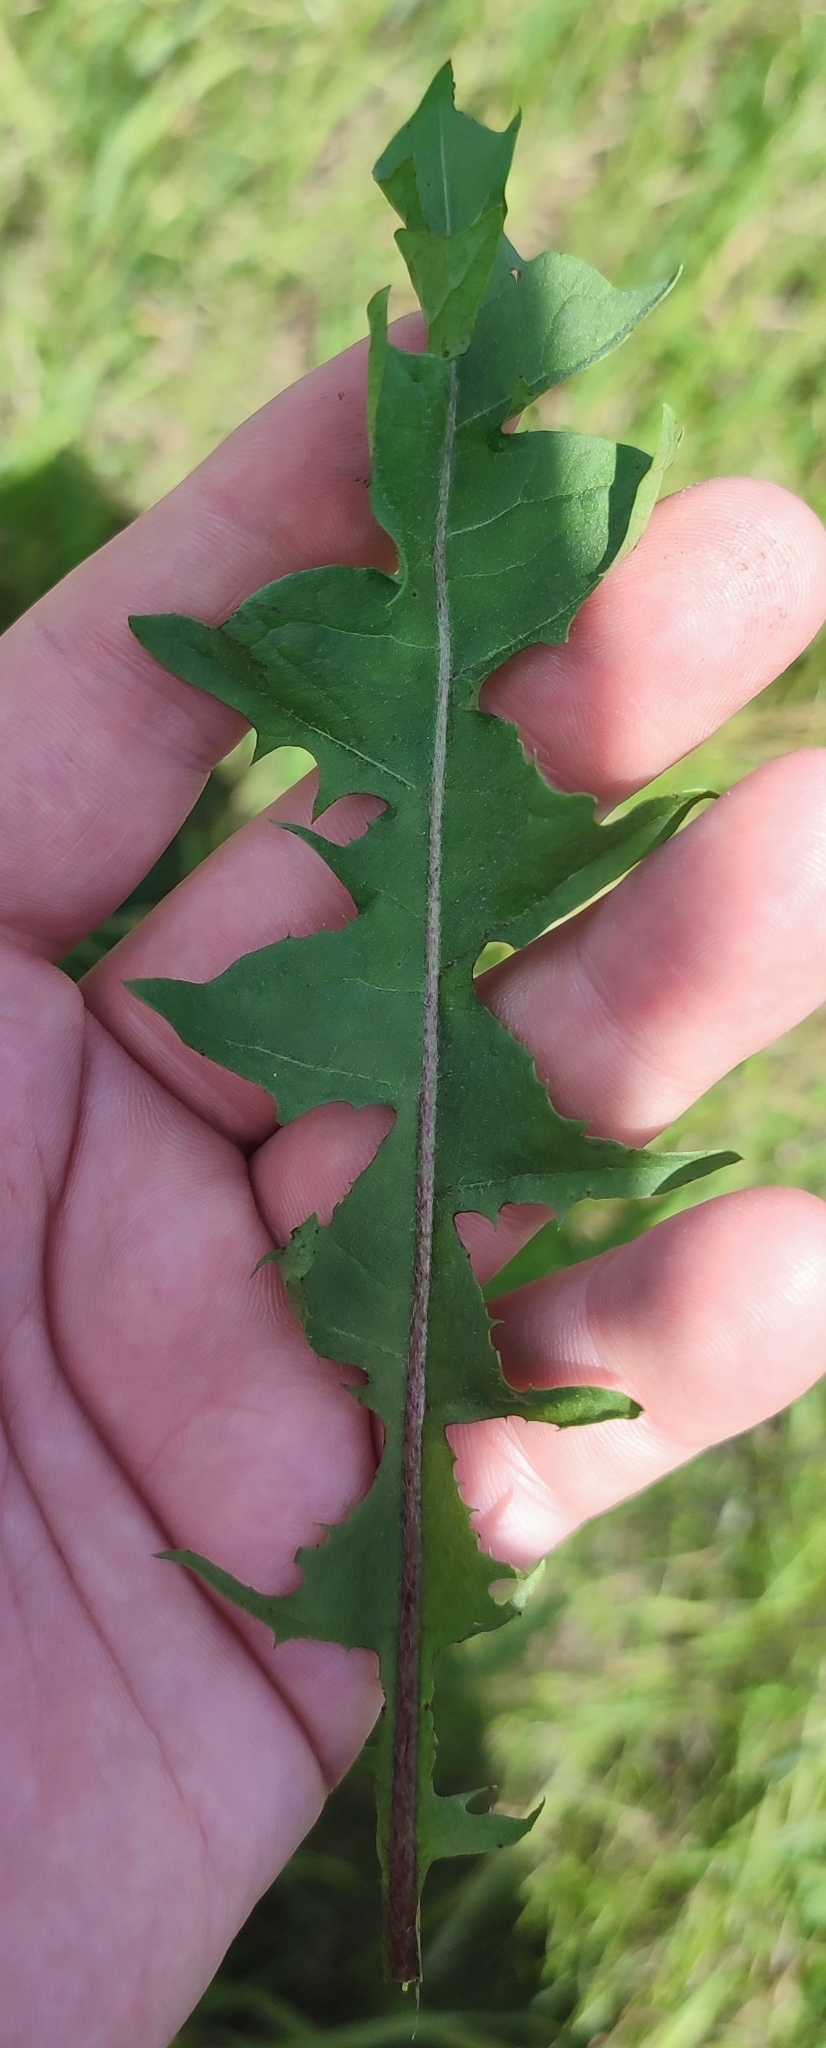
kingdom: Plantae
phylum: Tracheophyta
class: Magnoliopsida
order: Asterales
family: Asteraceae
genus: Taraxacum
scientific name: Taraxacum officinale
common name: Common dandelion
